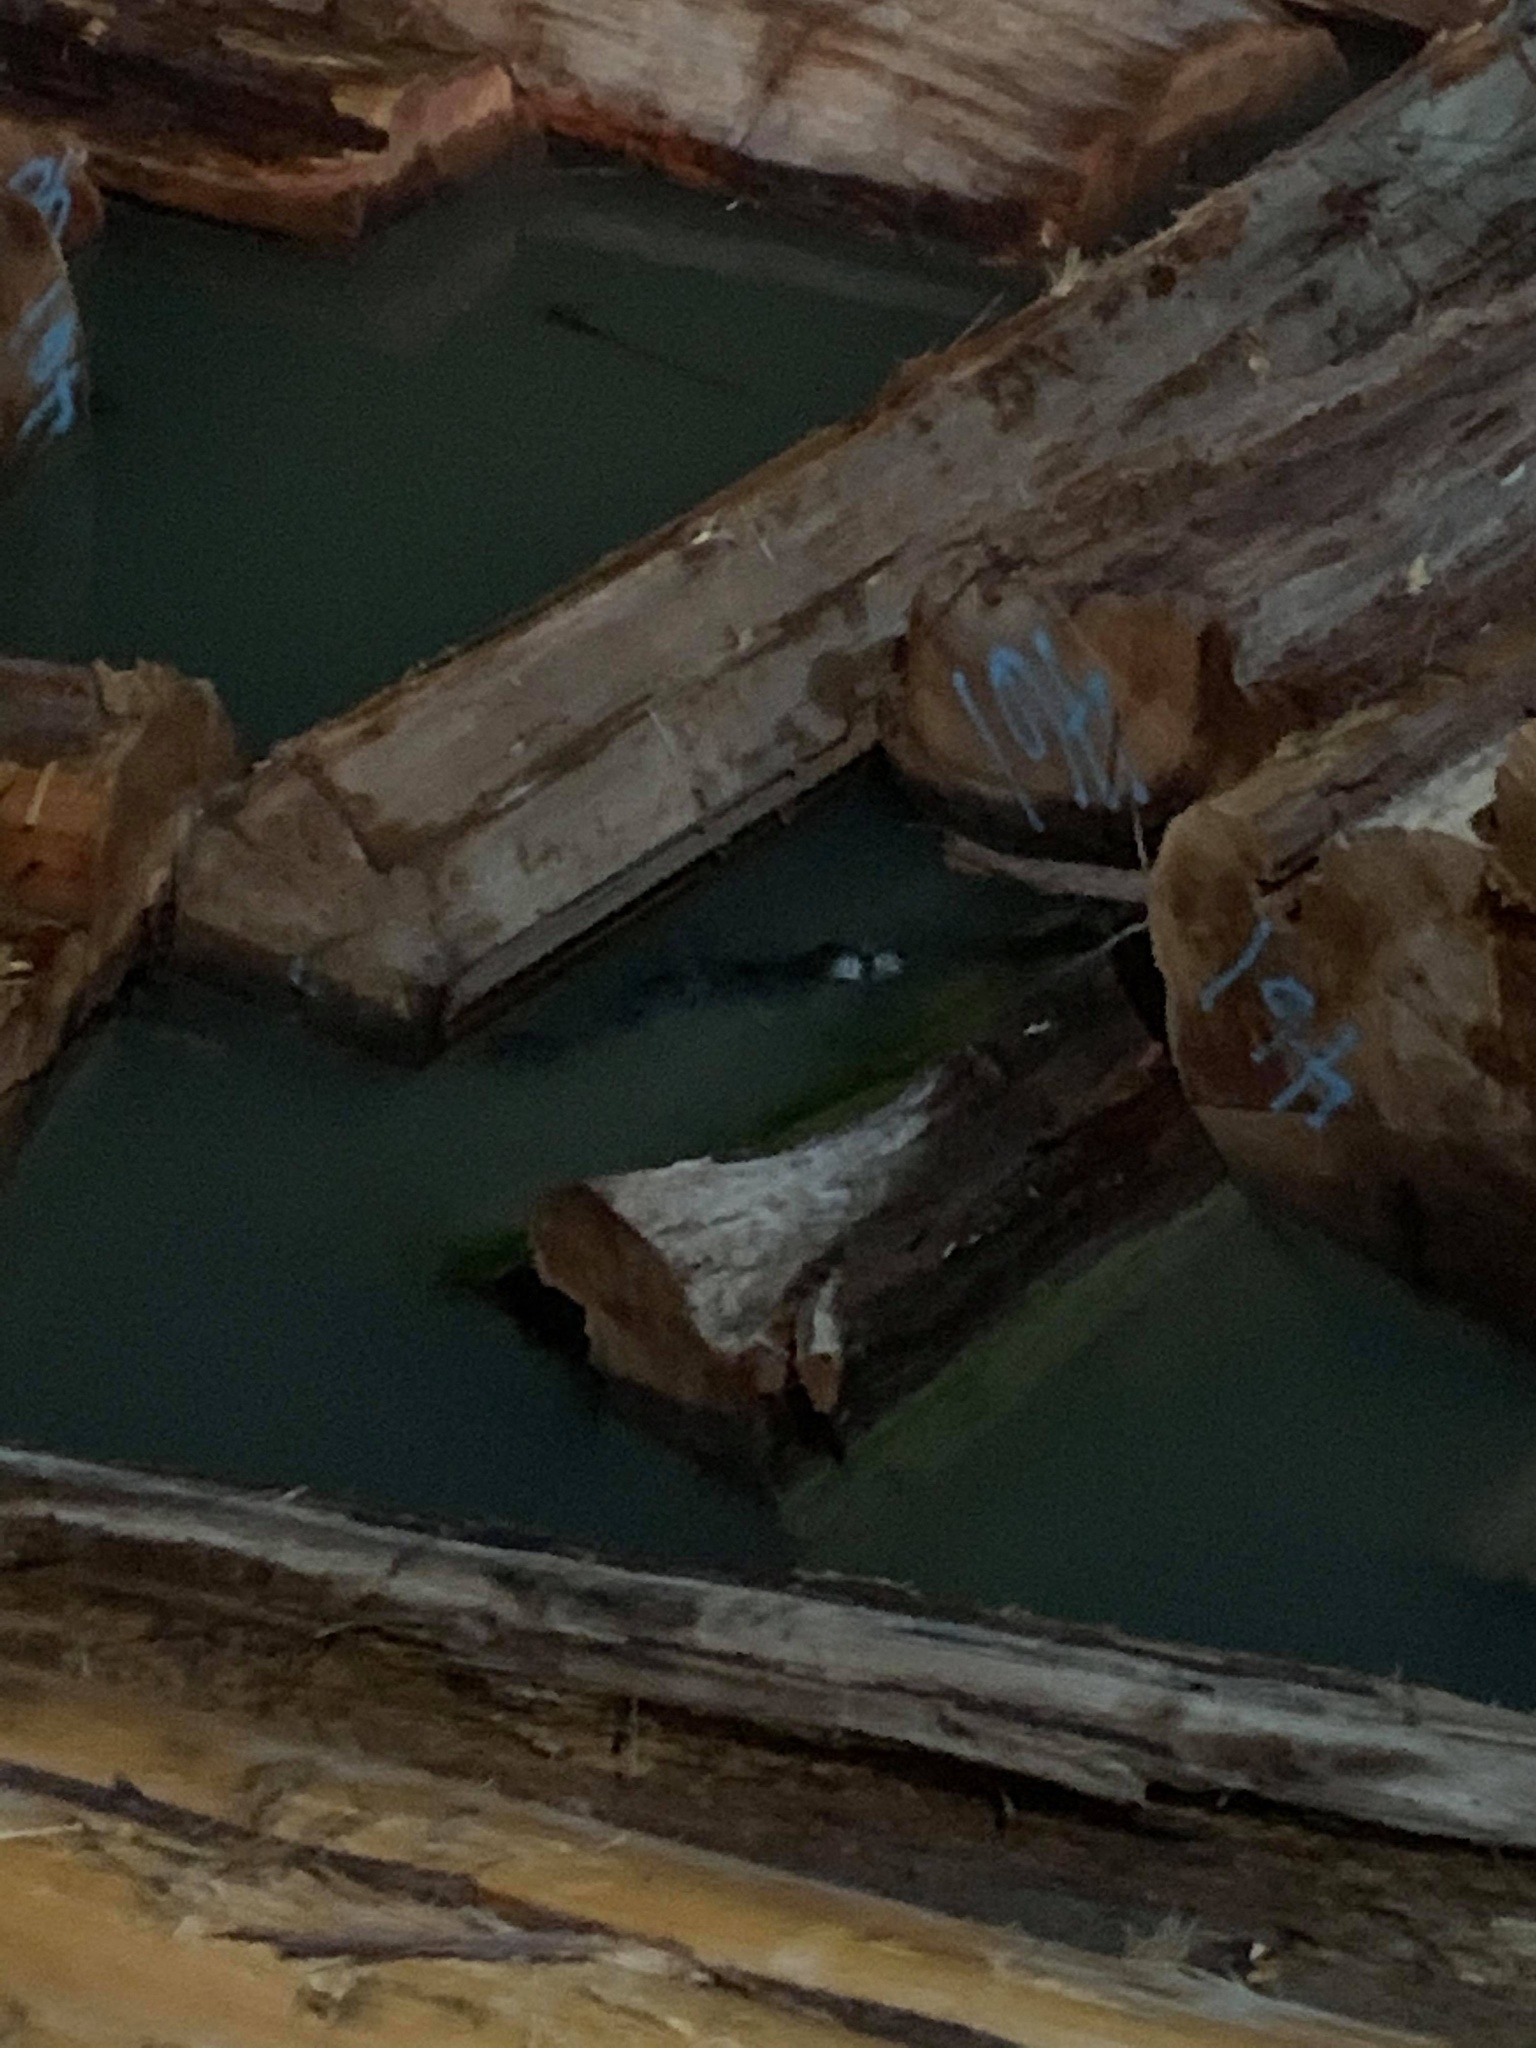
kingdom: Animalia
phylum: Chordata
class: Mammalia
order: Carnivora
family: Phocidae
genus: Phoca
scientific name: Phoca vitulina
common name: Harbor seal
